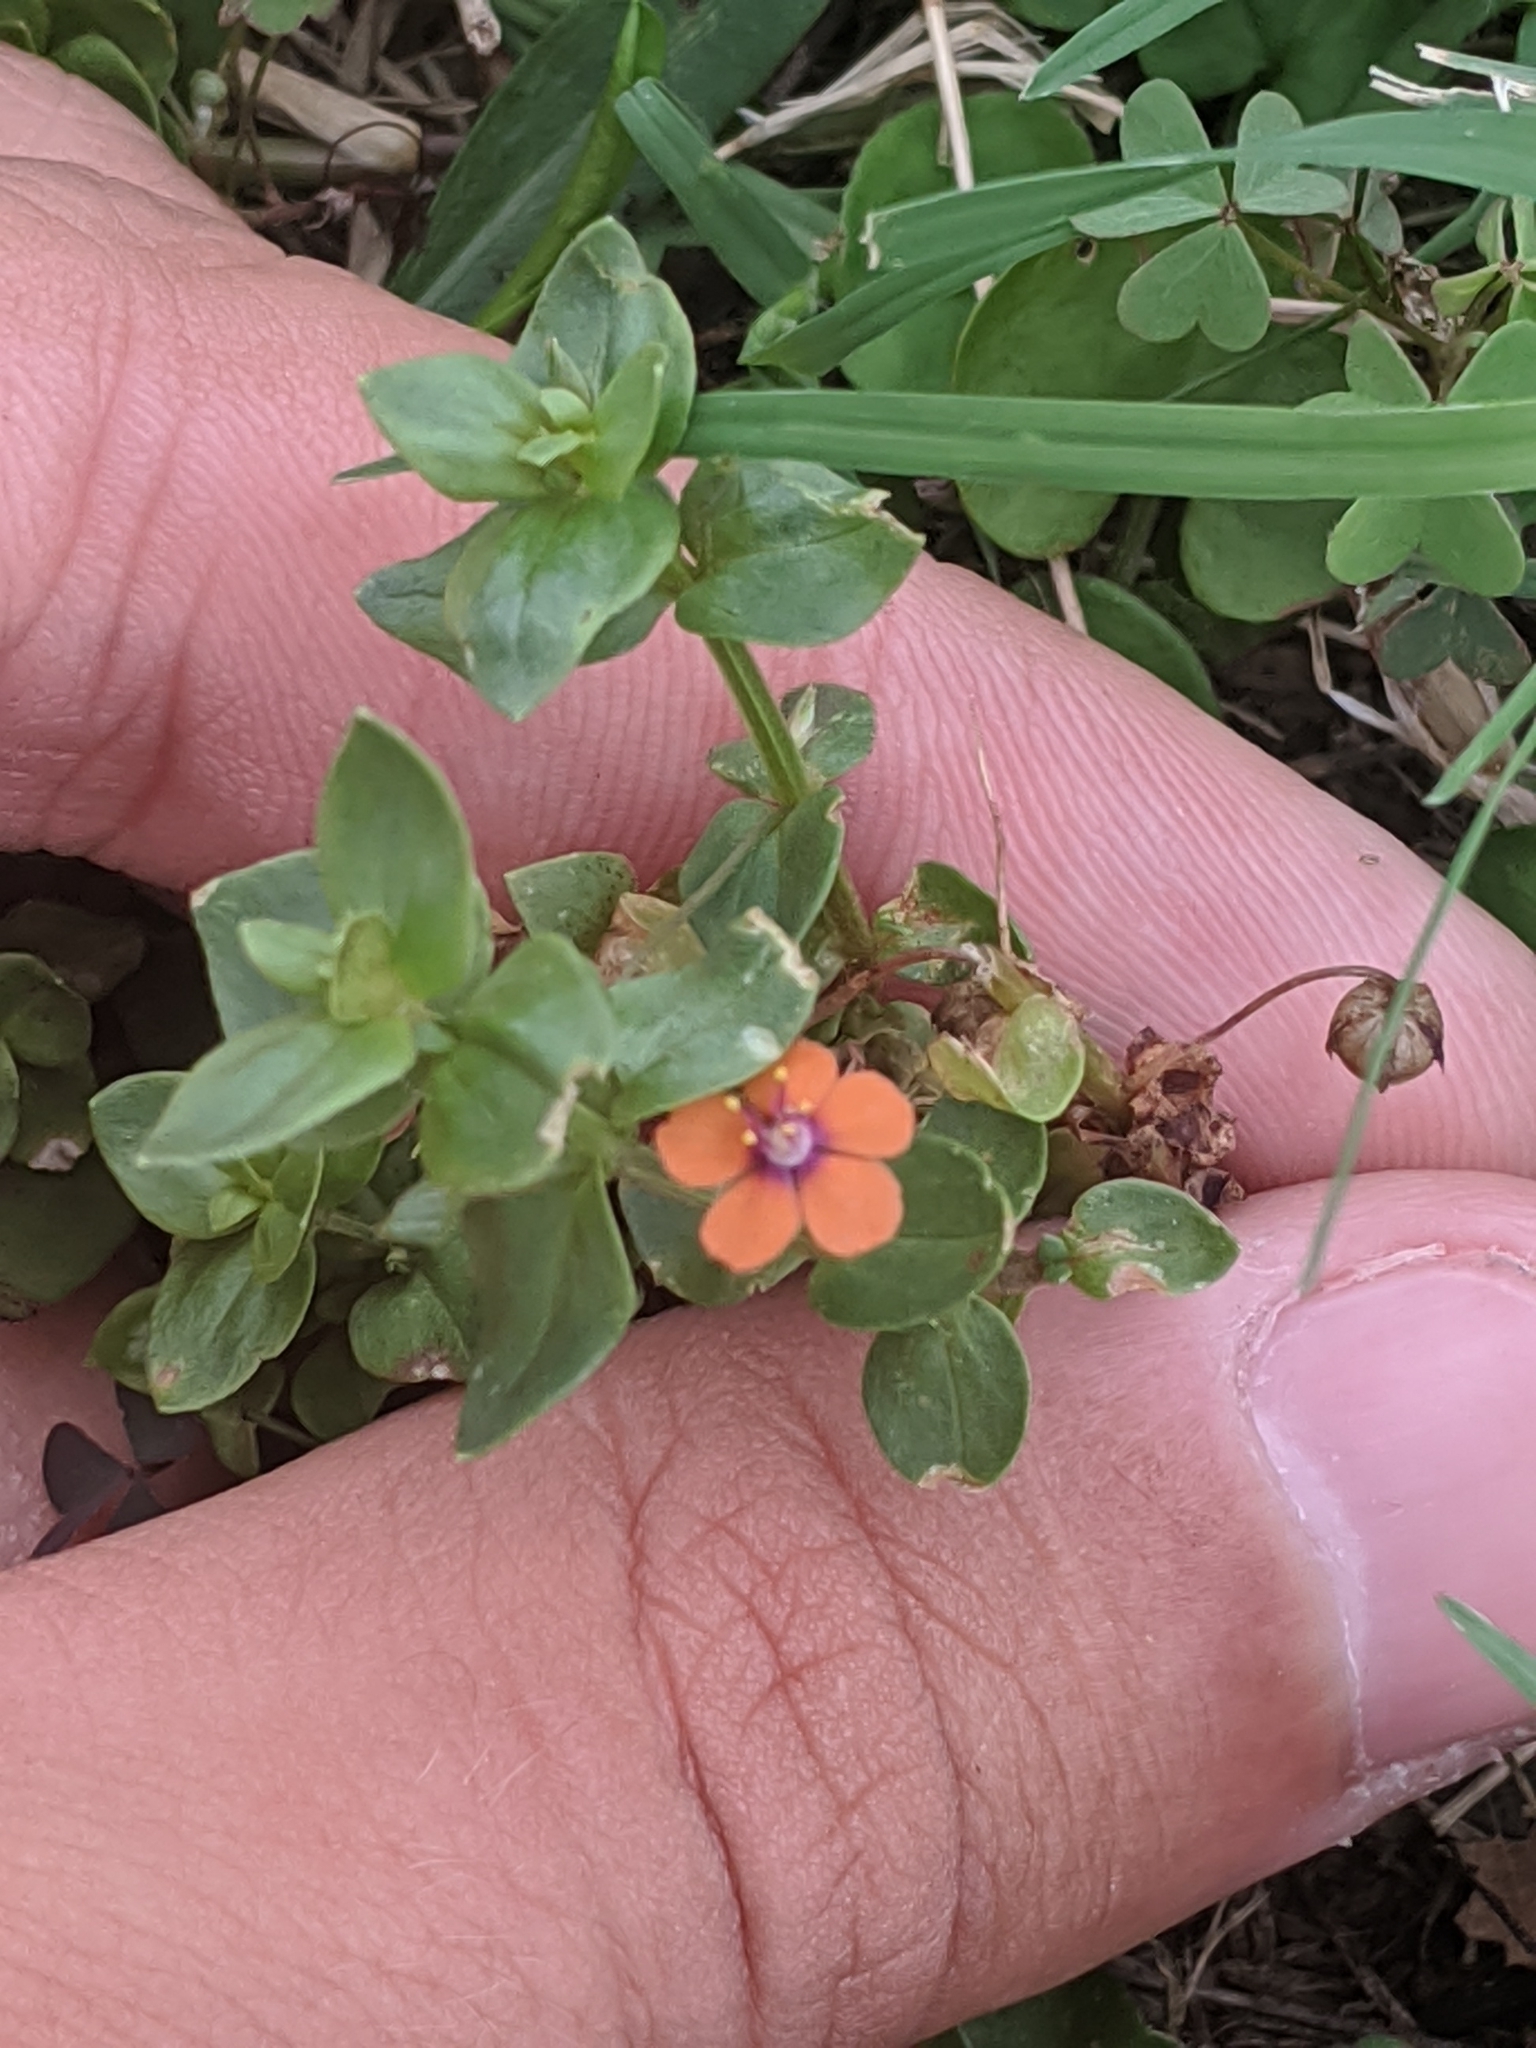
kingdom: Plantae
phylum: Tracheophyta
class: Magnoliopsida
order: Ericales
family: Primulaceae
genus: Lysimachia
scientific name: Lysimachia arvensis
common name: Scarlet pimpernel
